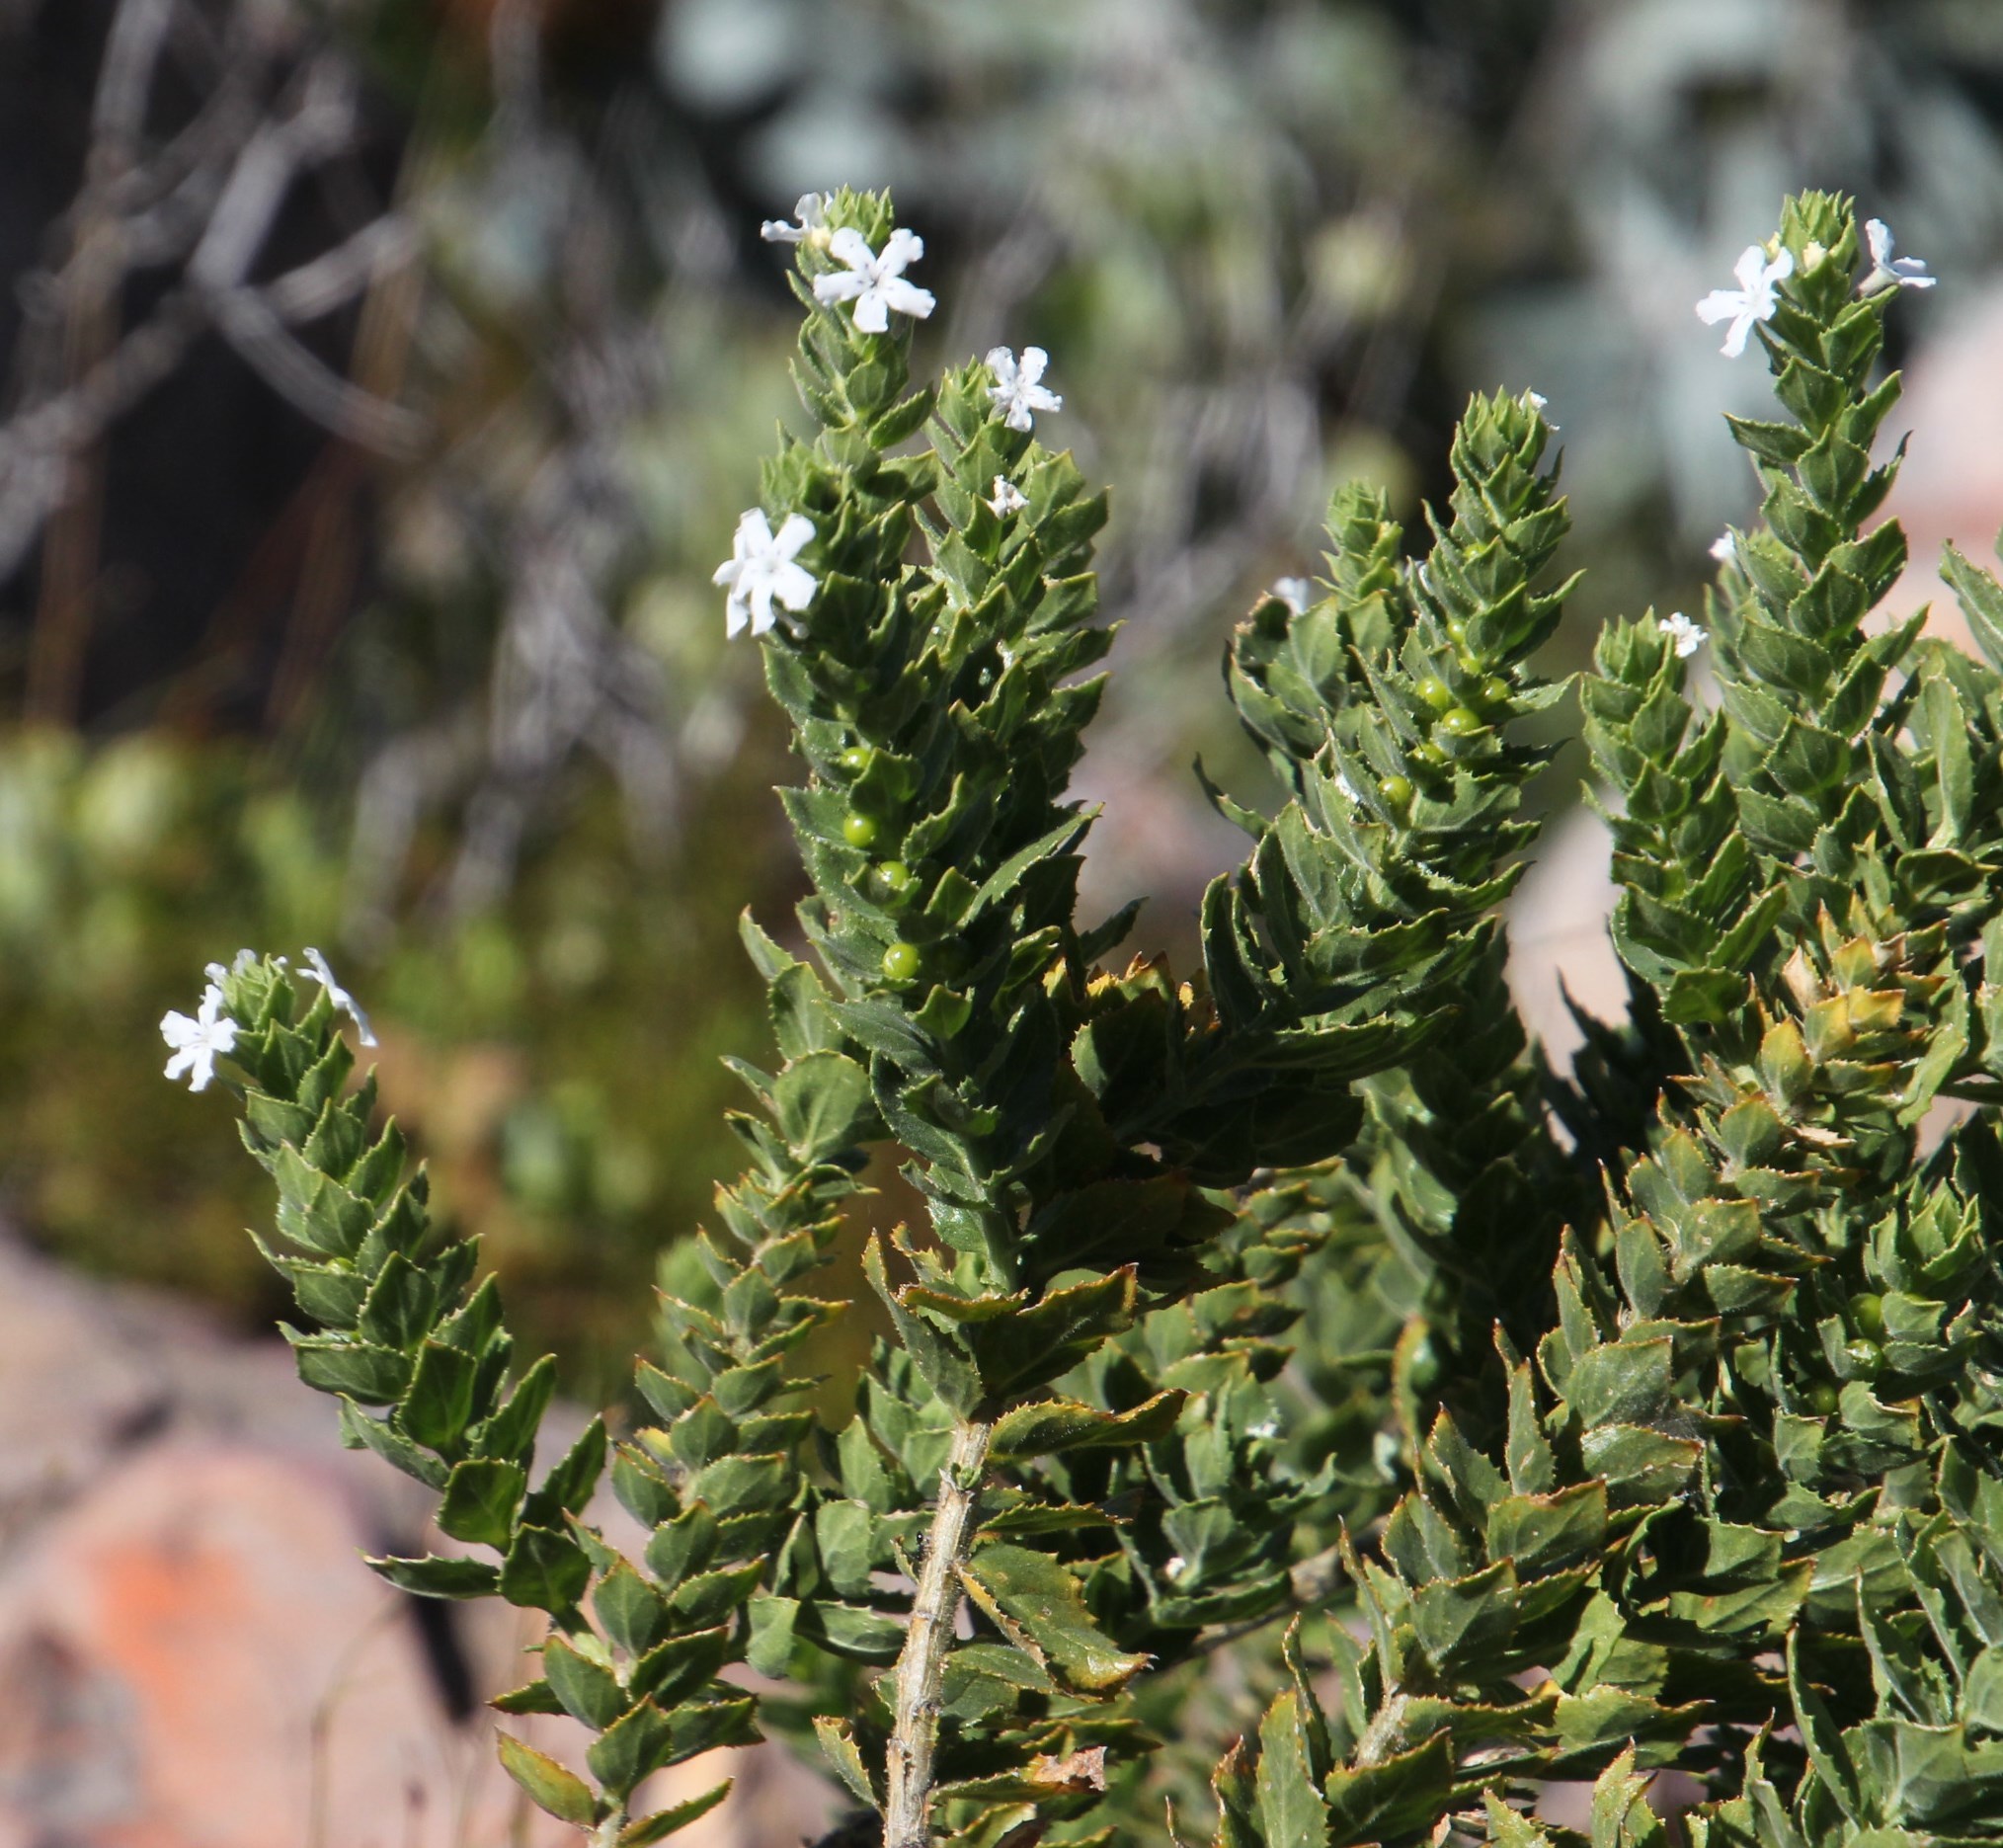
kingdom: Plantae
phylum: Tracheophyta
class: Magnoliopsida
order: Lamiales
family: Scrophulariaceae
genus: Oftia
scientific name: Oftia africana
